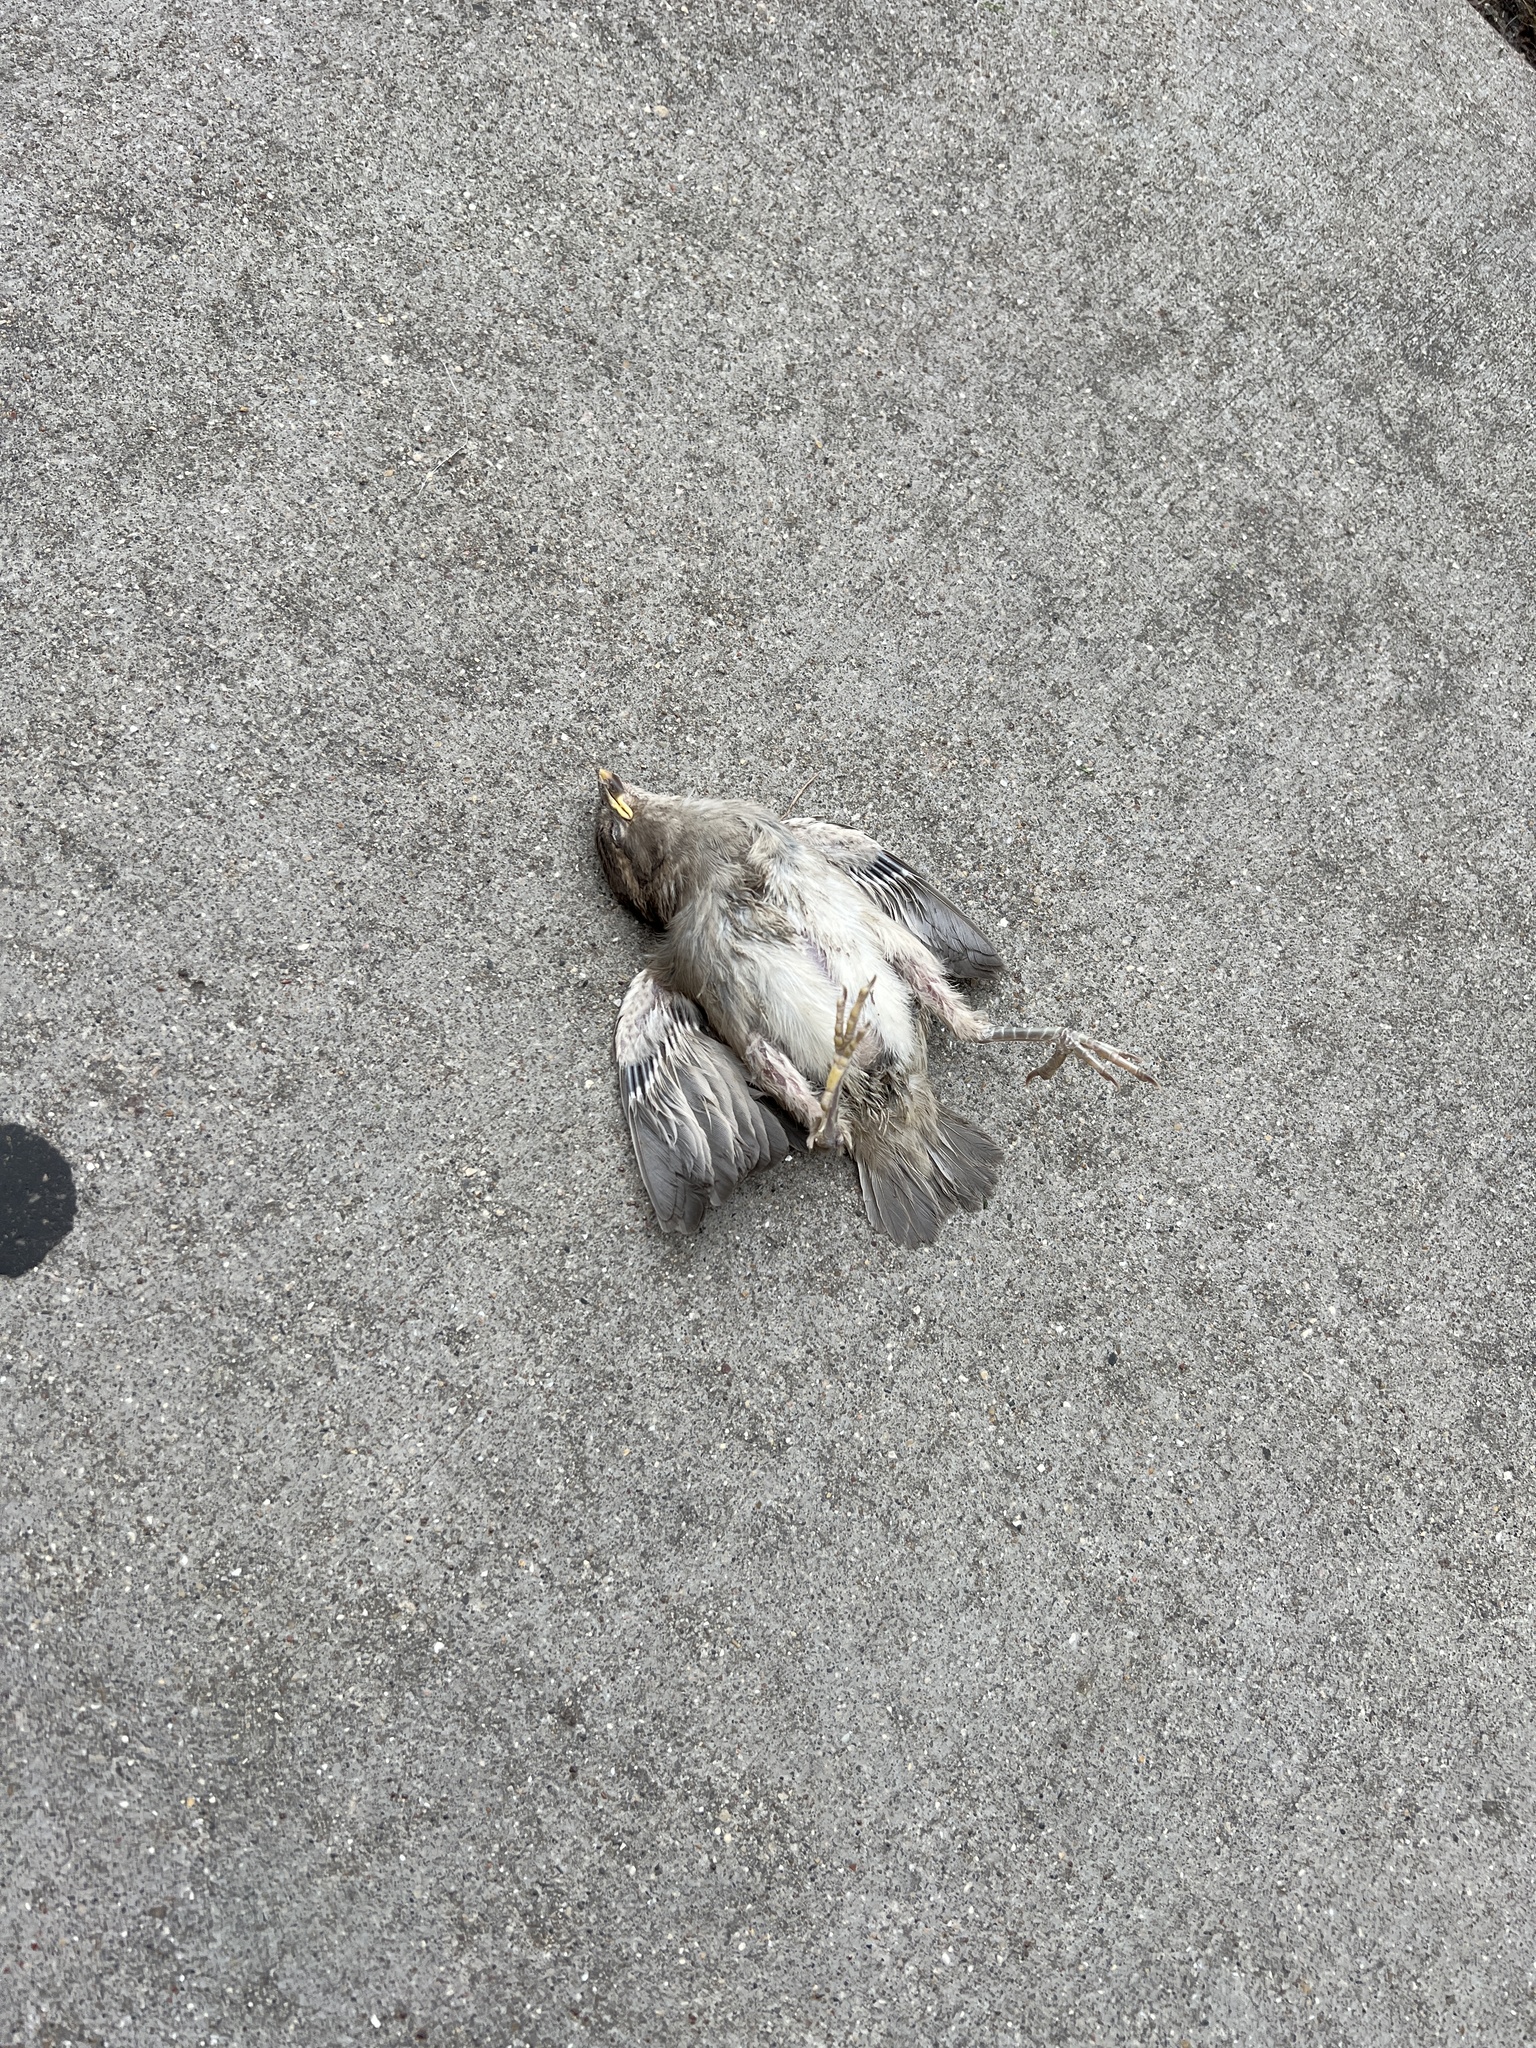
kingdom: Animalia
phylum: Chordata
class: Aves
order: Passeriformes
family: Passeridae
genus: Passer
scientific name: Passer domesticus
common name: House sparrow
